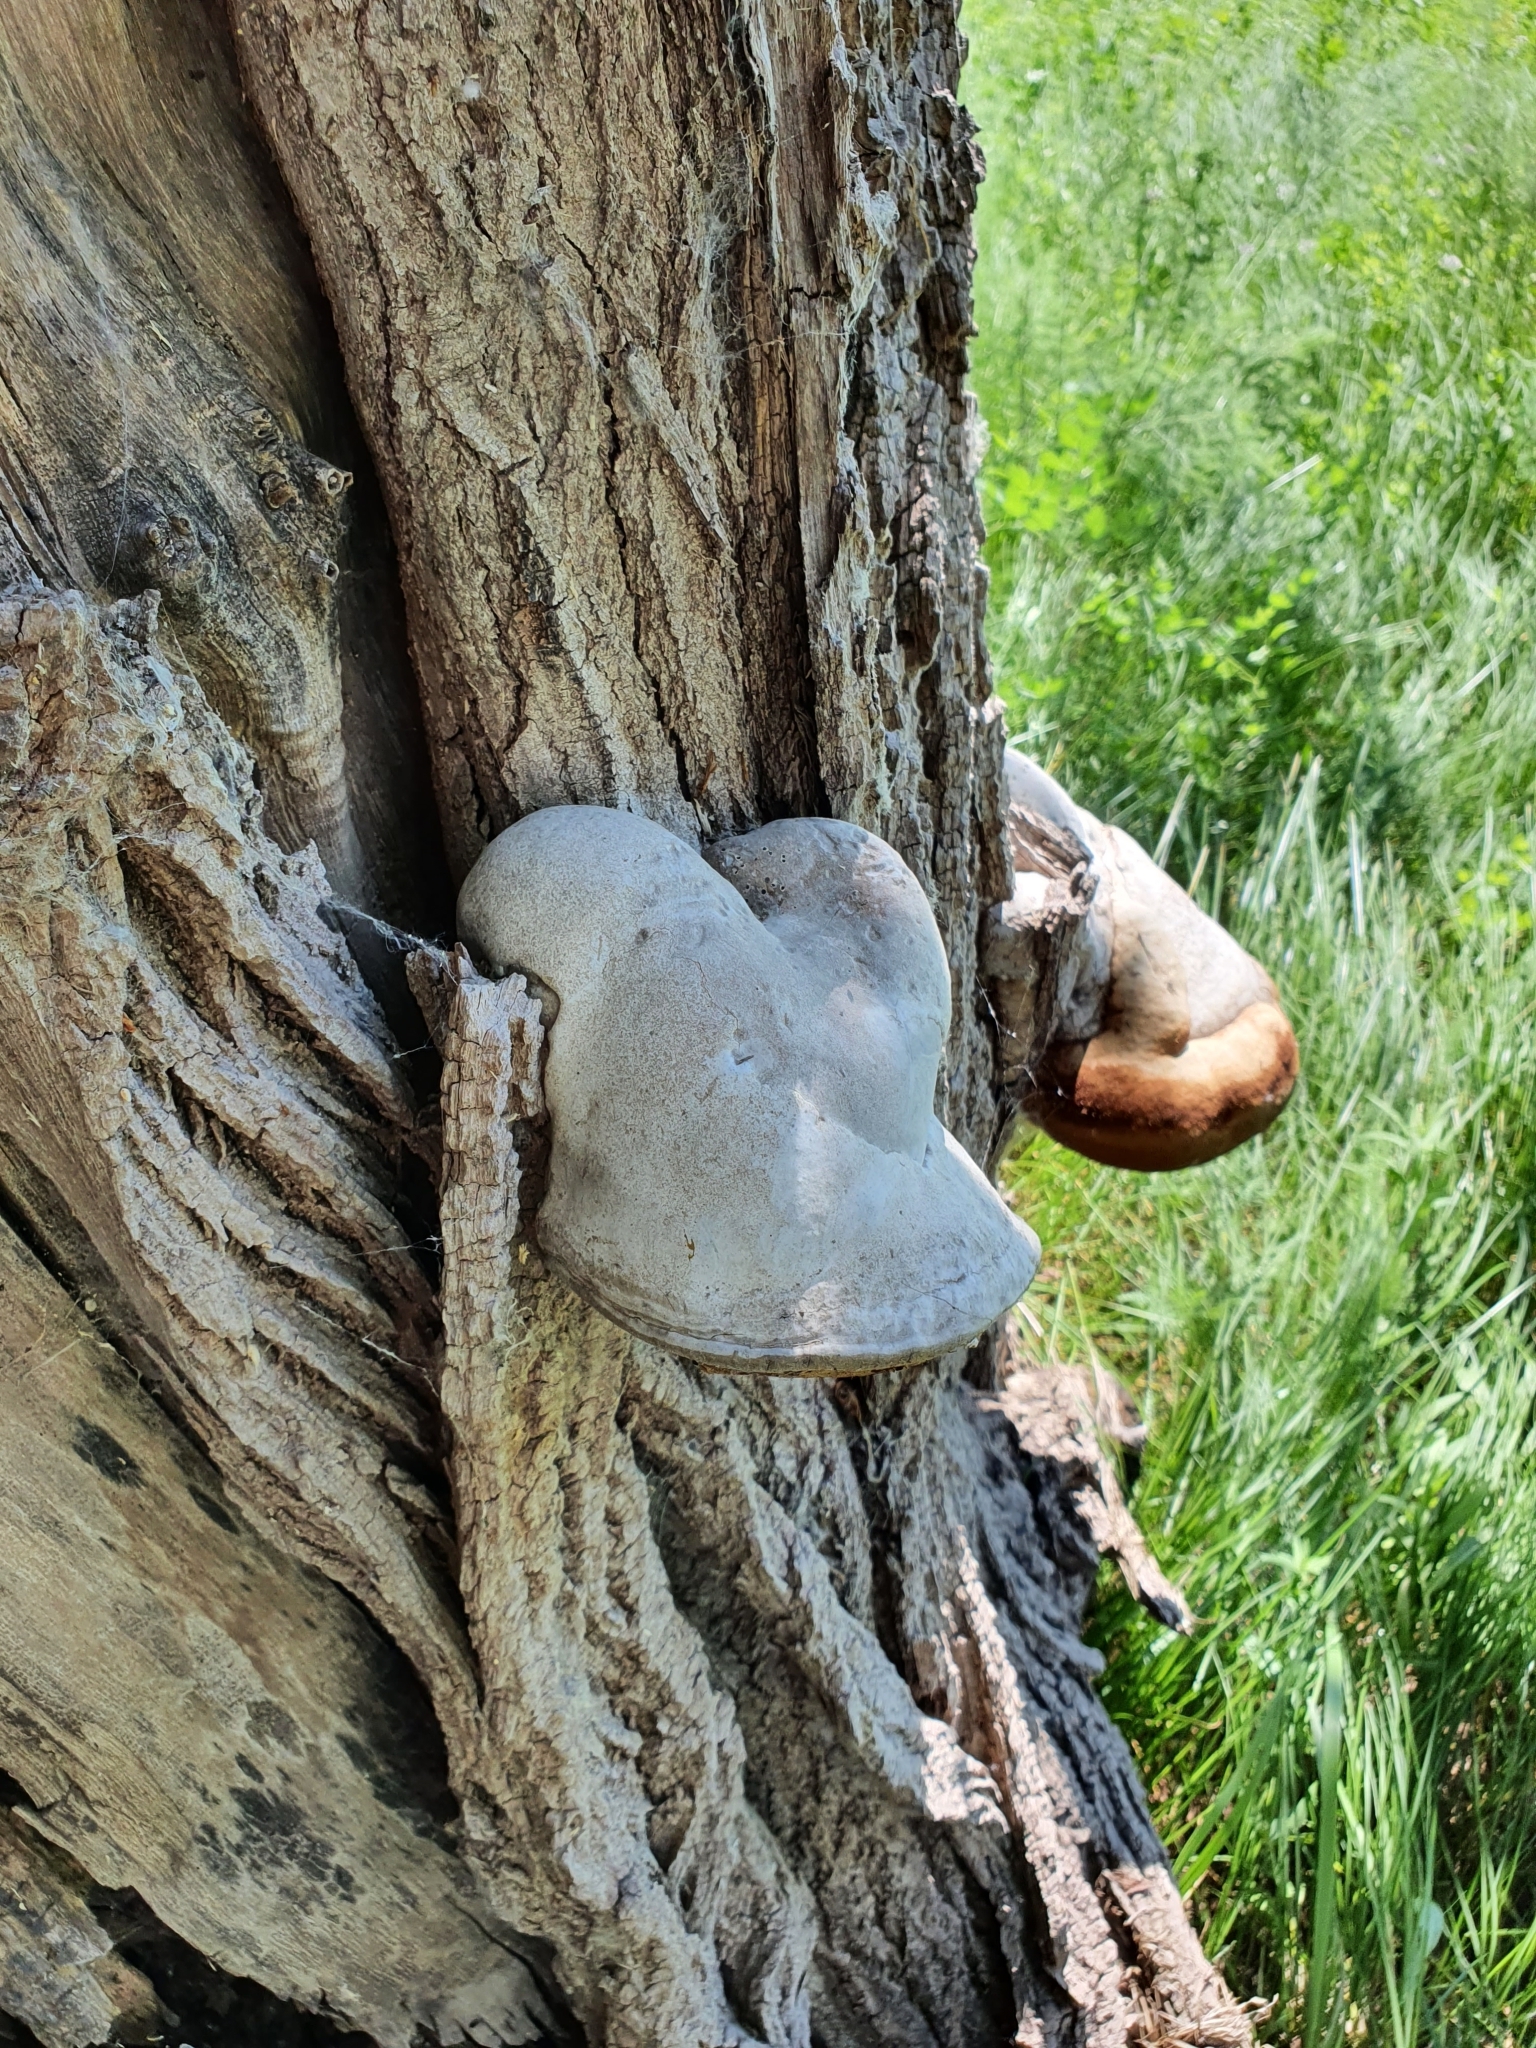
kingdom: Fungi
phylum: Basidiomycota
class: Agaricomycetes
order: Polyporales
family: Polyporaceae
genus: Fomes
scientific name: Fomes fomentarius
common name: Hoof fungus
